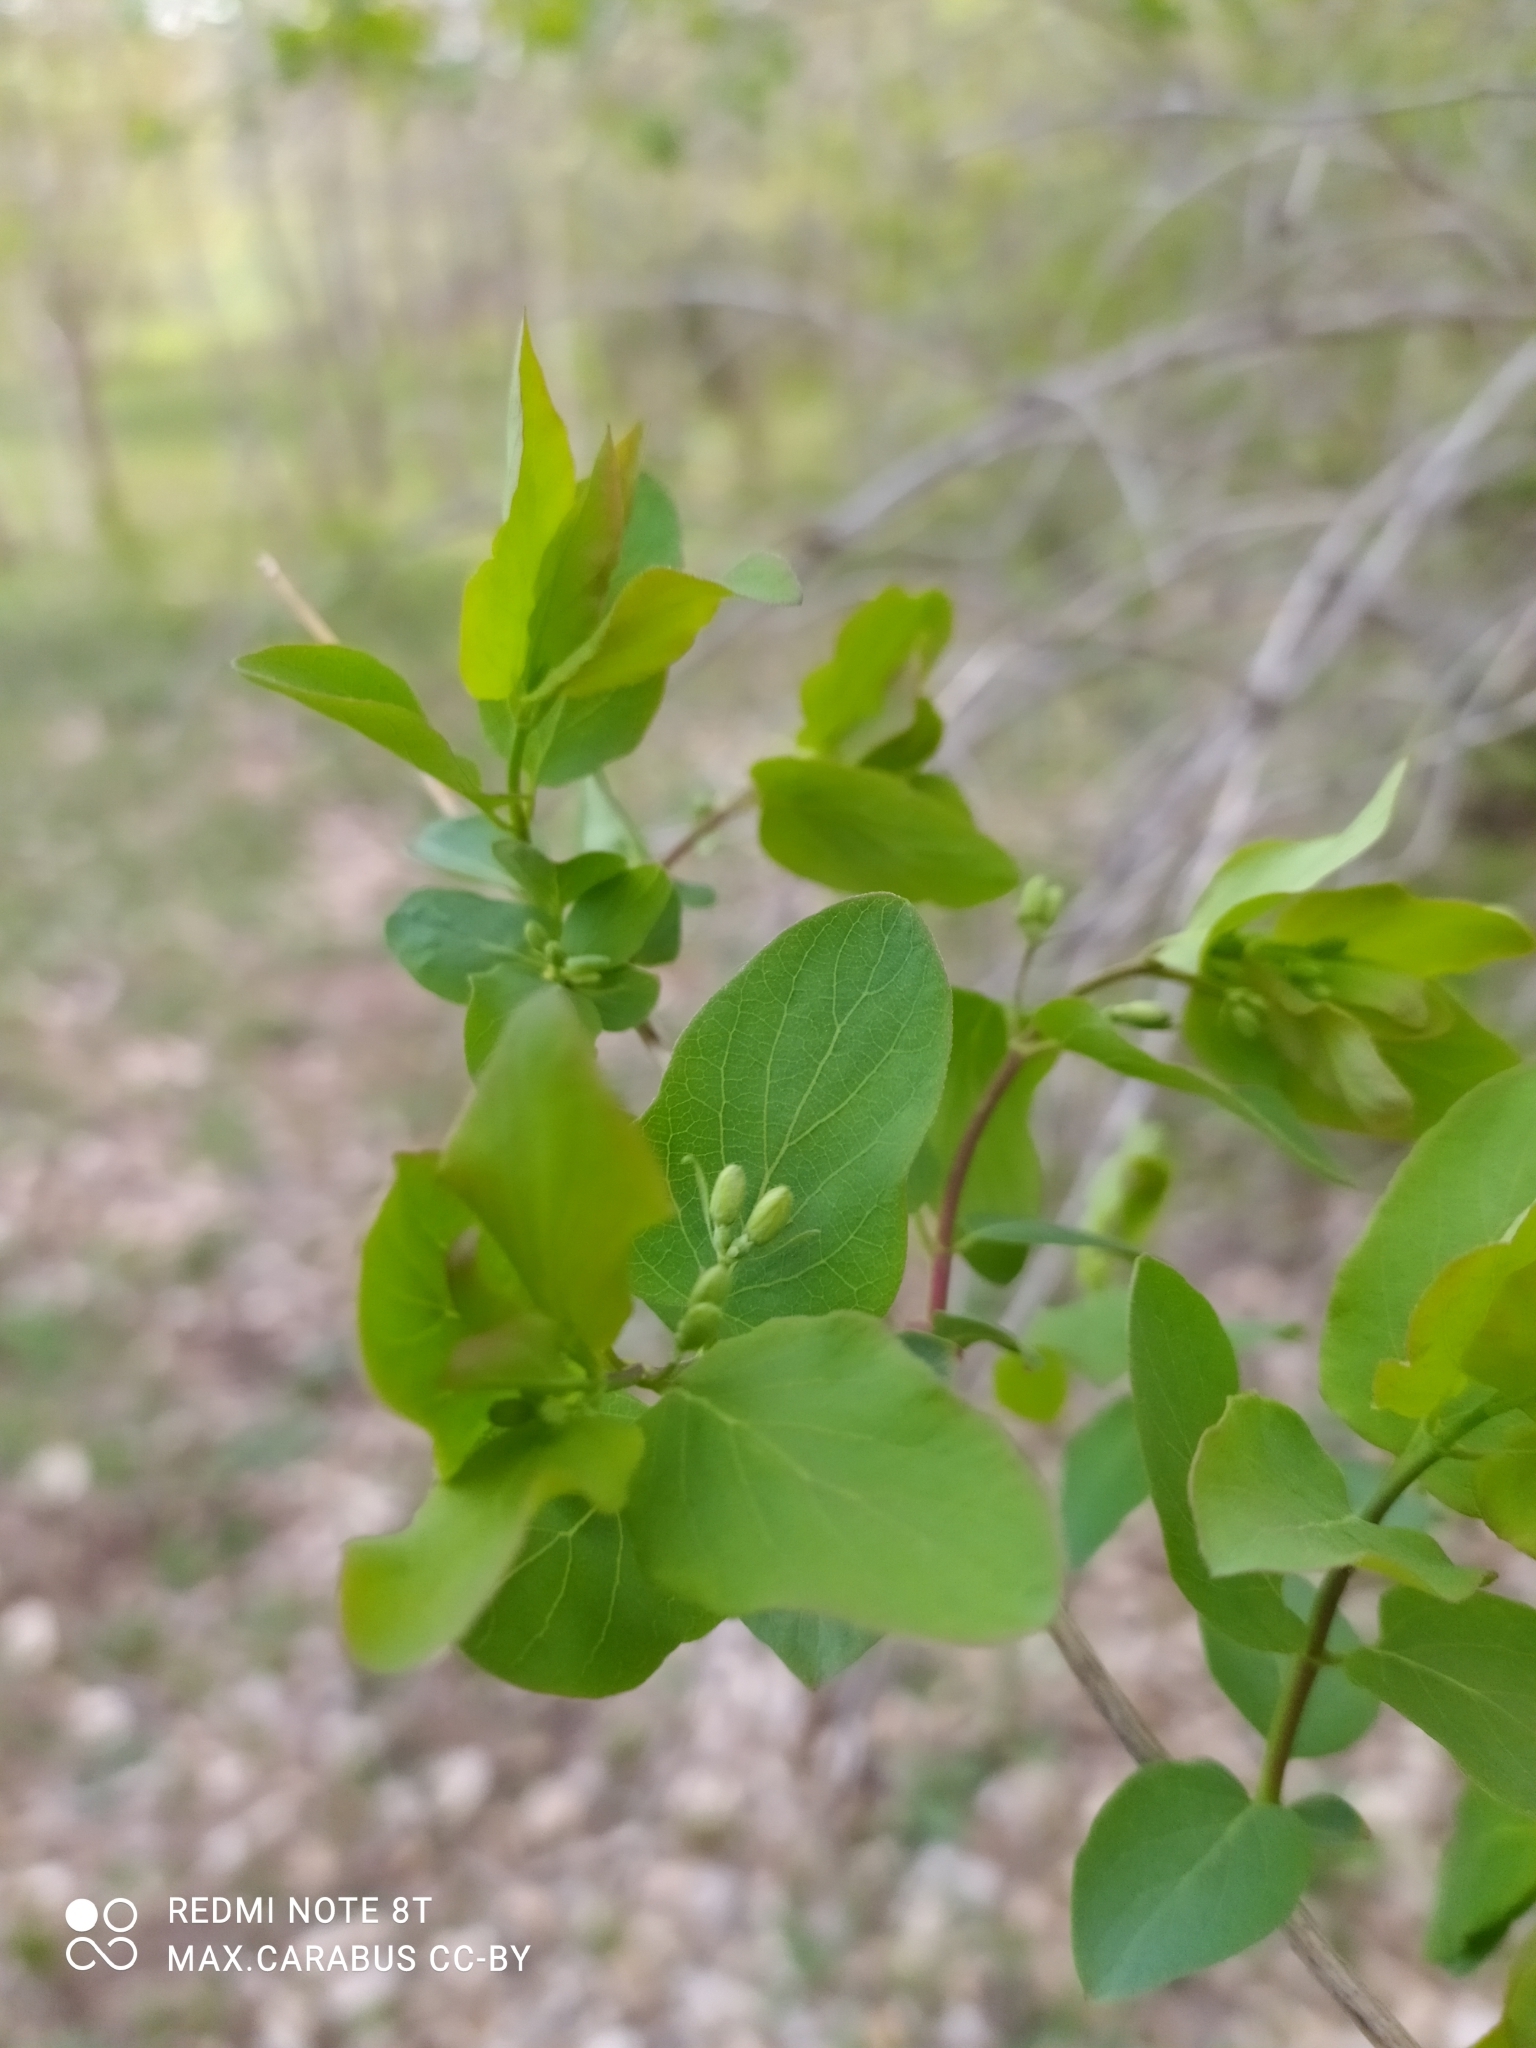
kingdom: Plantae
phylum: Tracheophyta
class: Magnoliopsida
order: Dipsacales
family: Caprifoliaceae
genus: Lonicera
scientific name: Lonicera tatarica
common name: Tatarian honeysuckle
